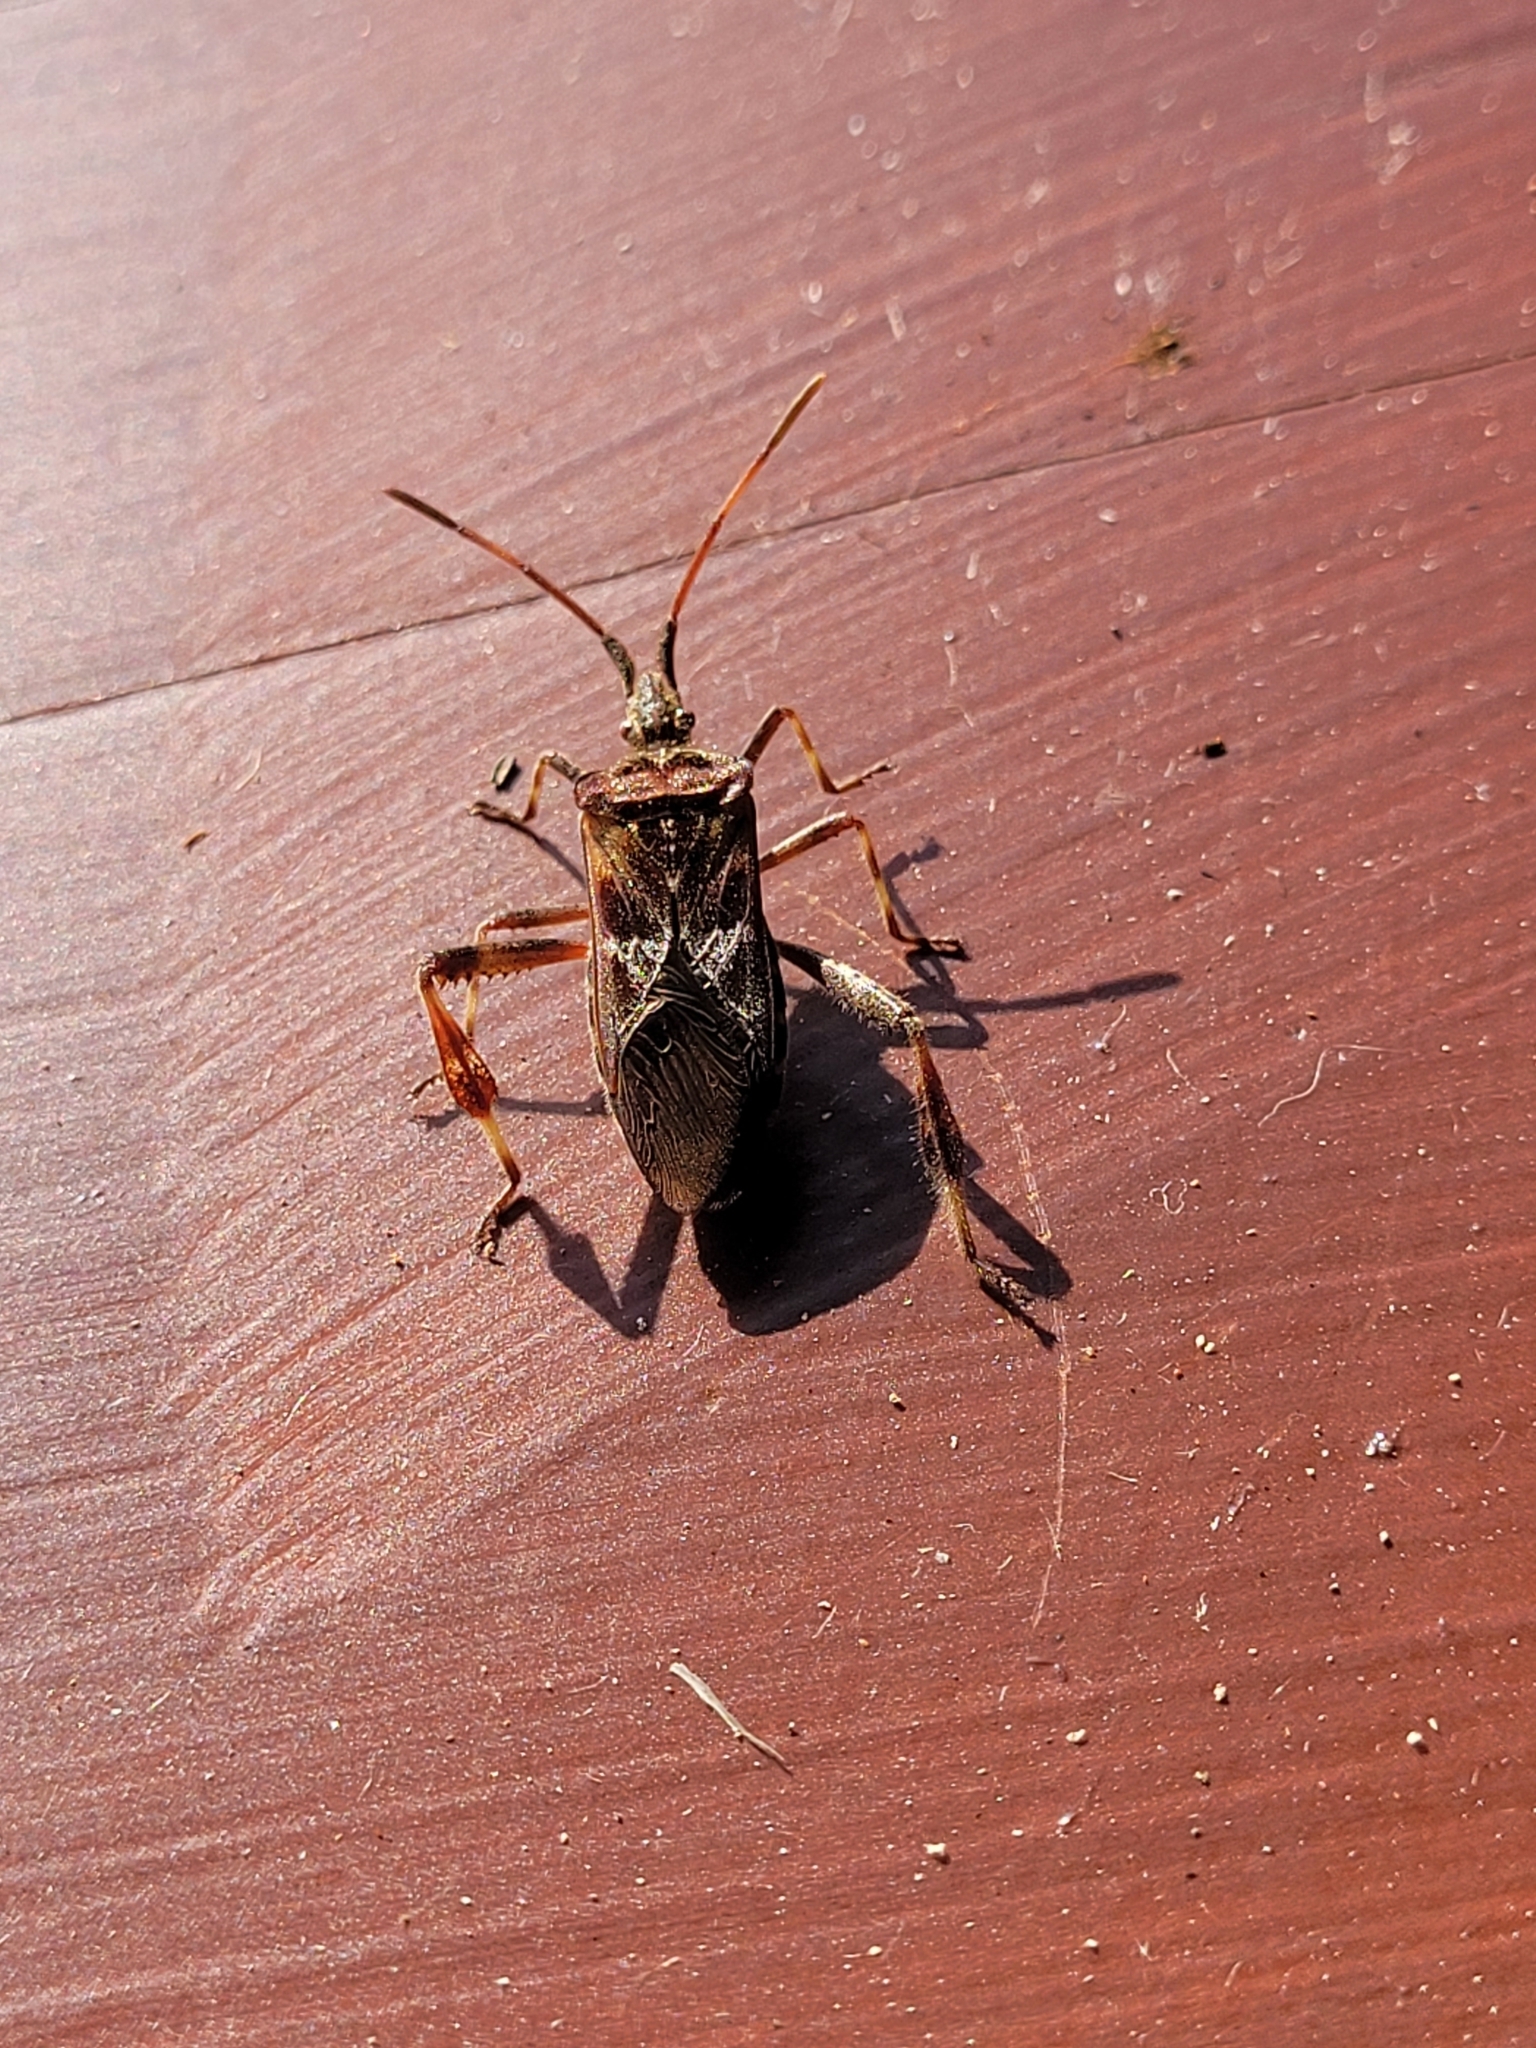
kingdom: Animalia
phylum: Arthropoda
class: Insecta
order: Hemiptera
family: Coreidae
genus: Leptoglossus
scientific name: Leptoglossus occidentalis
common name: Western conifer-seed bug
